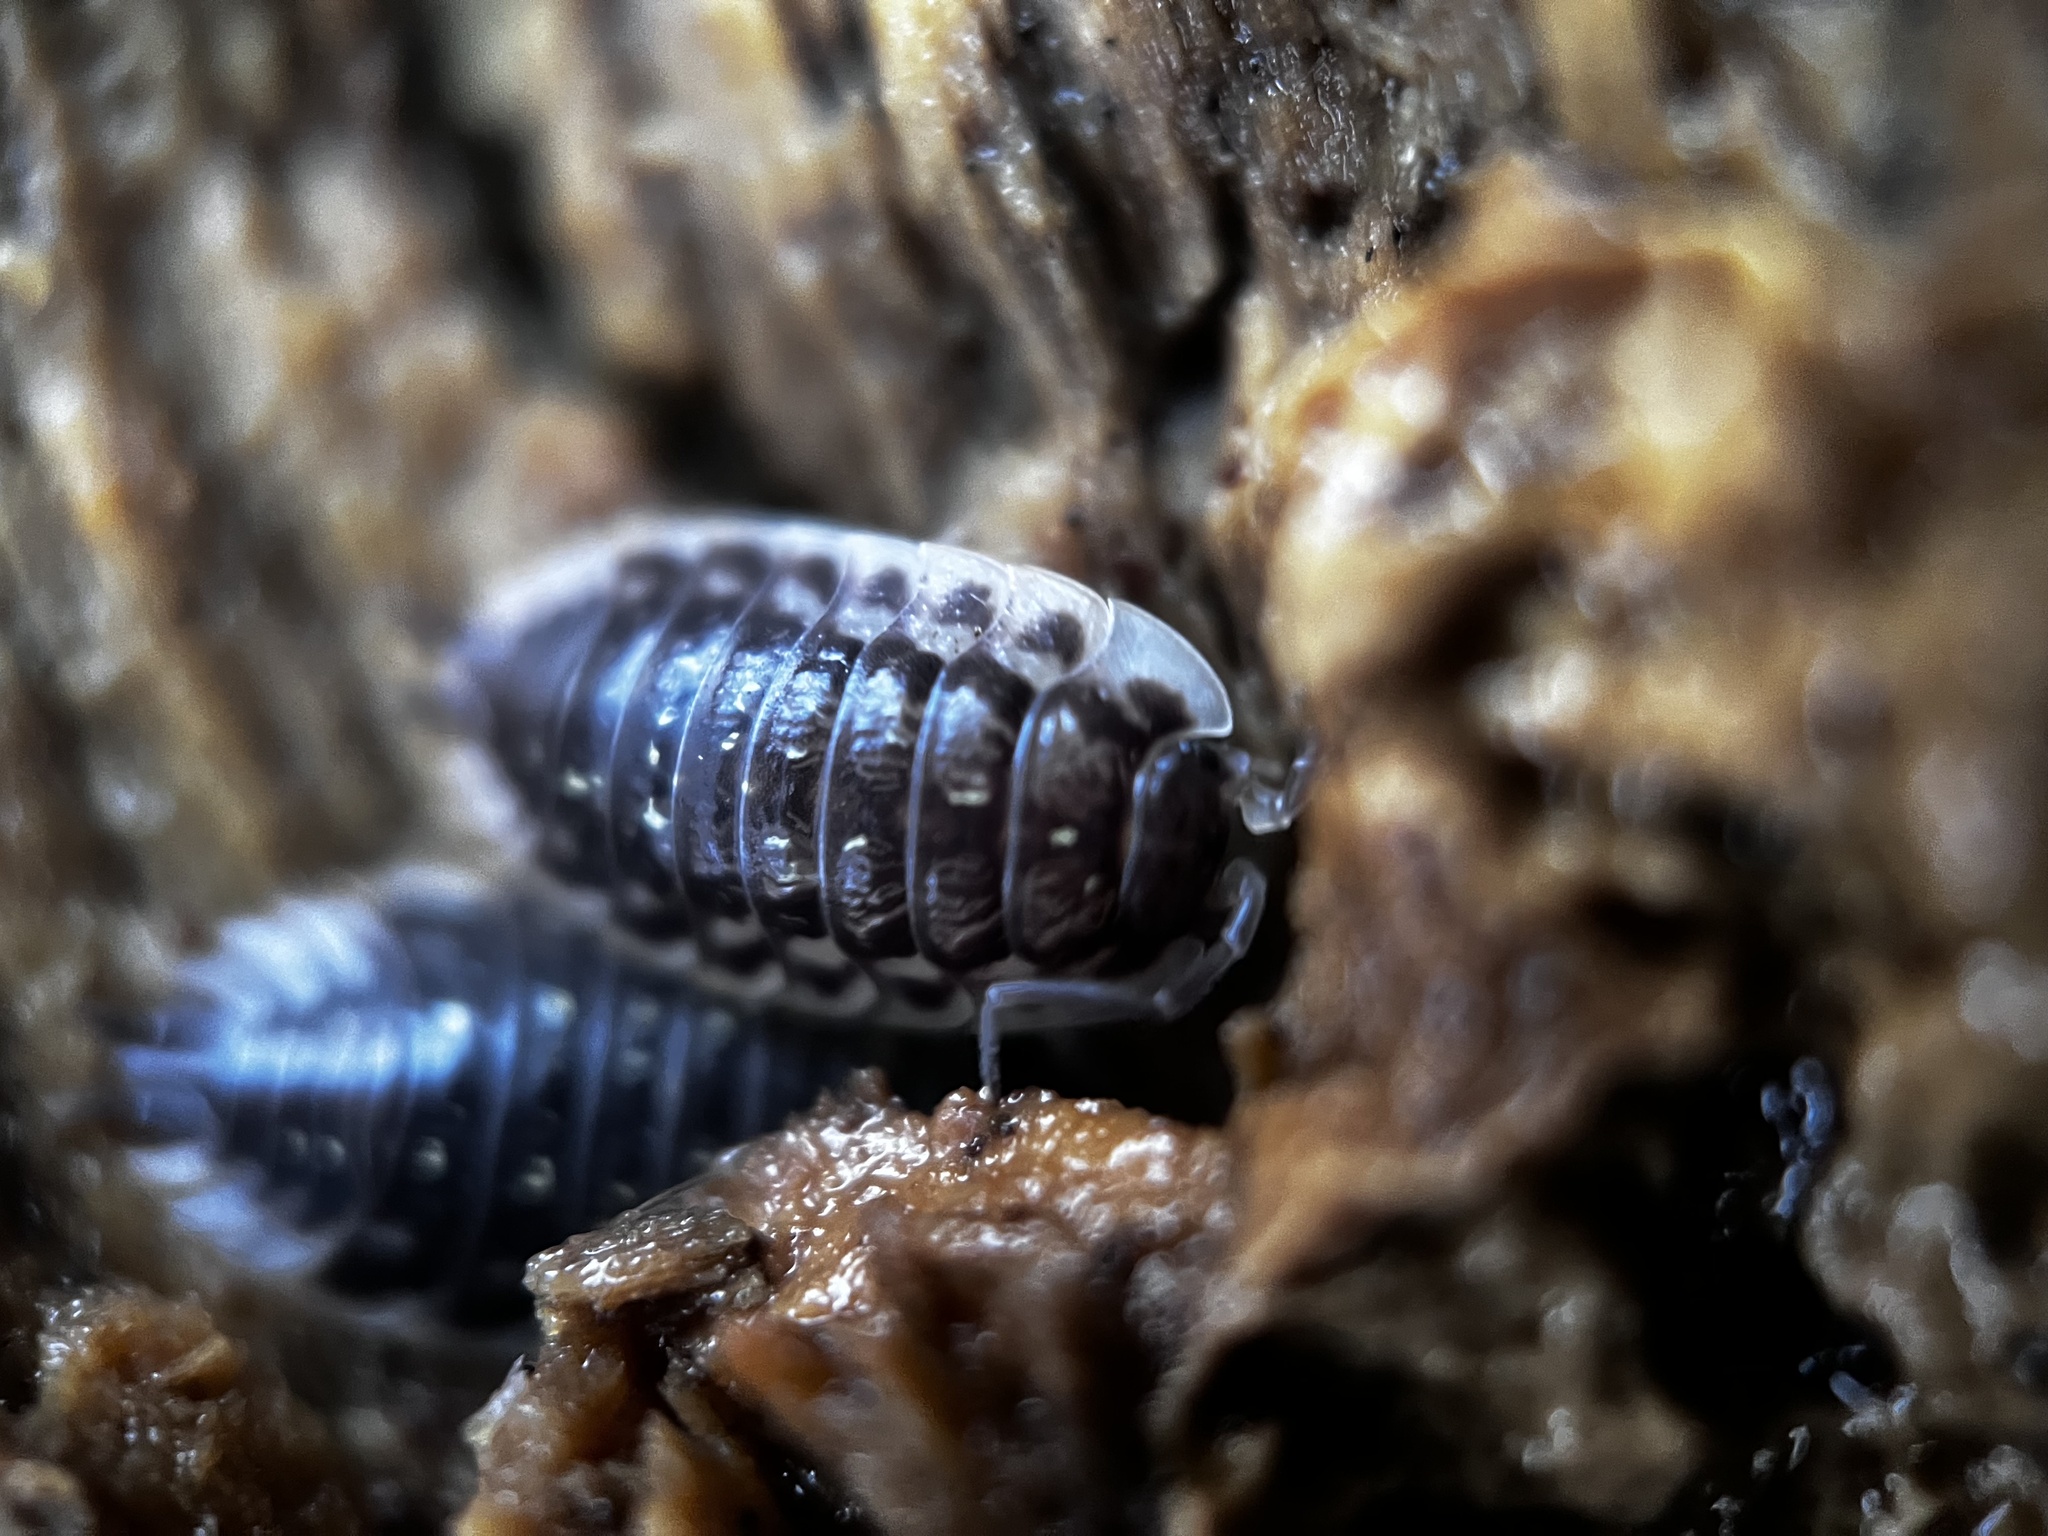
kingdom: Animalia
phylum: Arthropoda
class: Malacostraca
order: Isopoda
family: Oniscidae
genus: Oniscus
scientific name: Oniscus asellus
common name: Common shiny woodlouse
